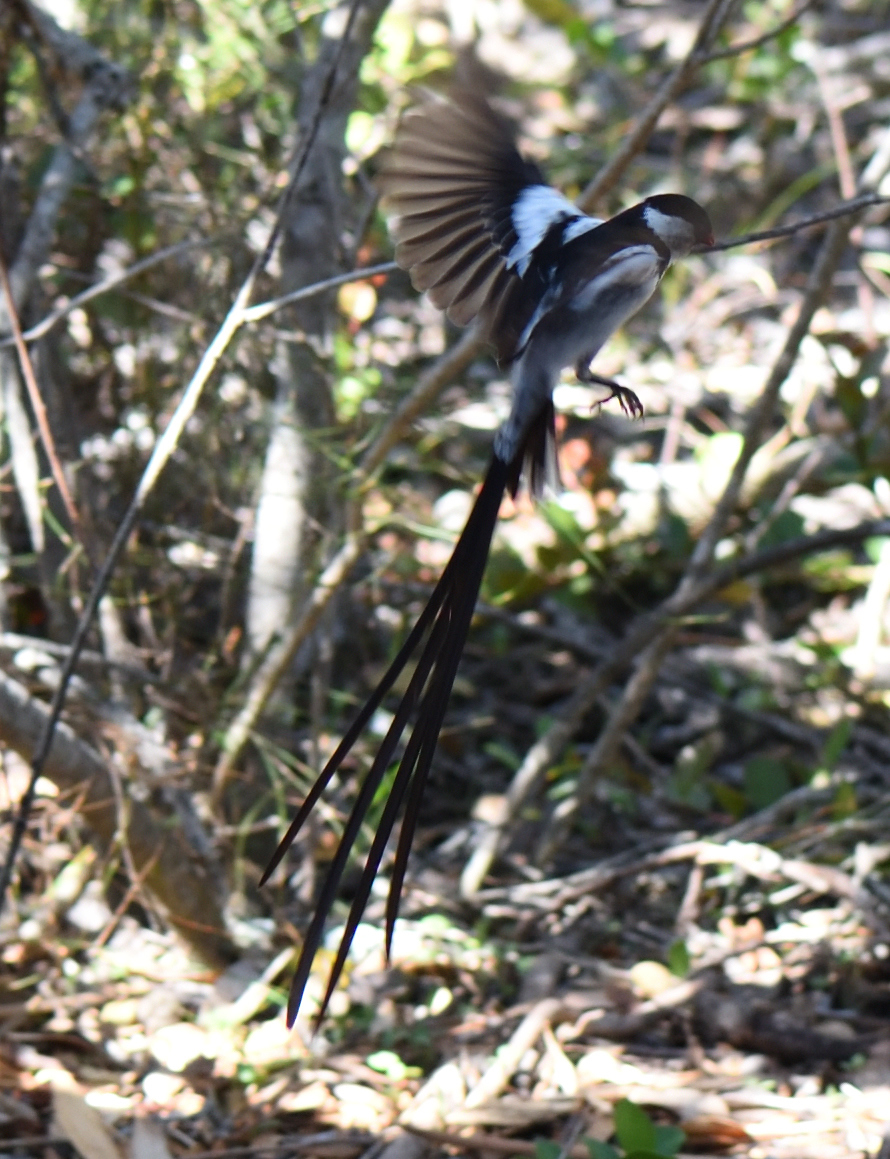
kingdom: Animalia
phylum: Chordata
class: Aves
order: Passeriformes
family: Viduidae
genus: Vidua
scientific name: Vidua macroura
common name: Pin-tailed whydah
